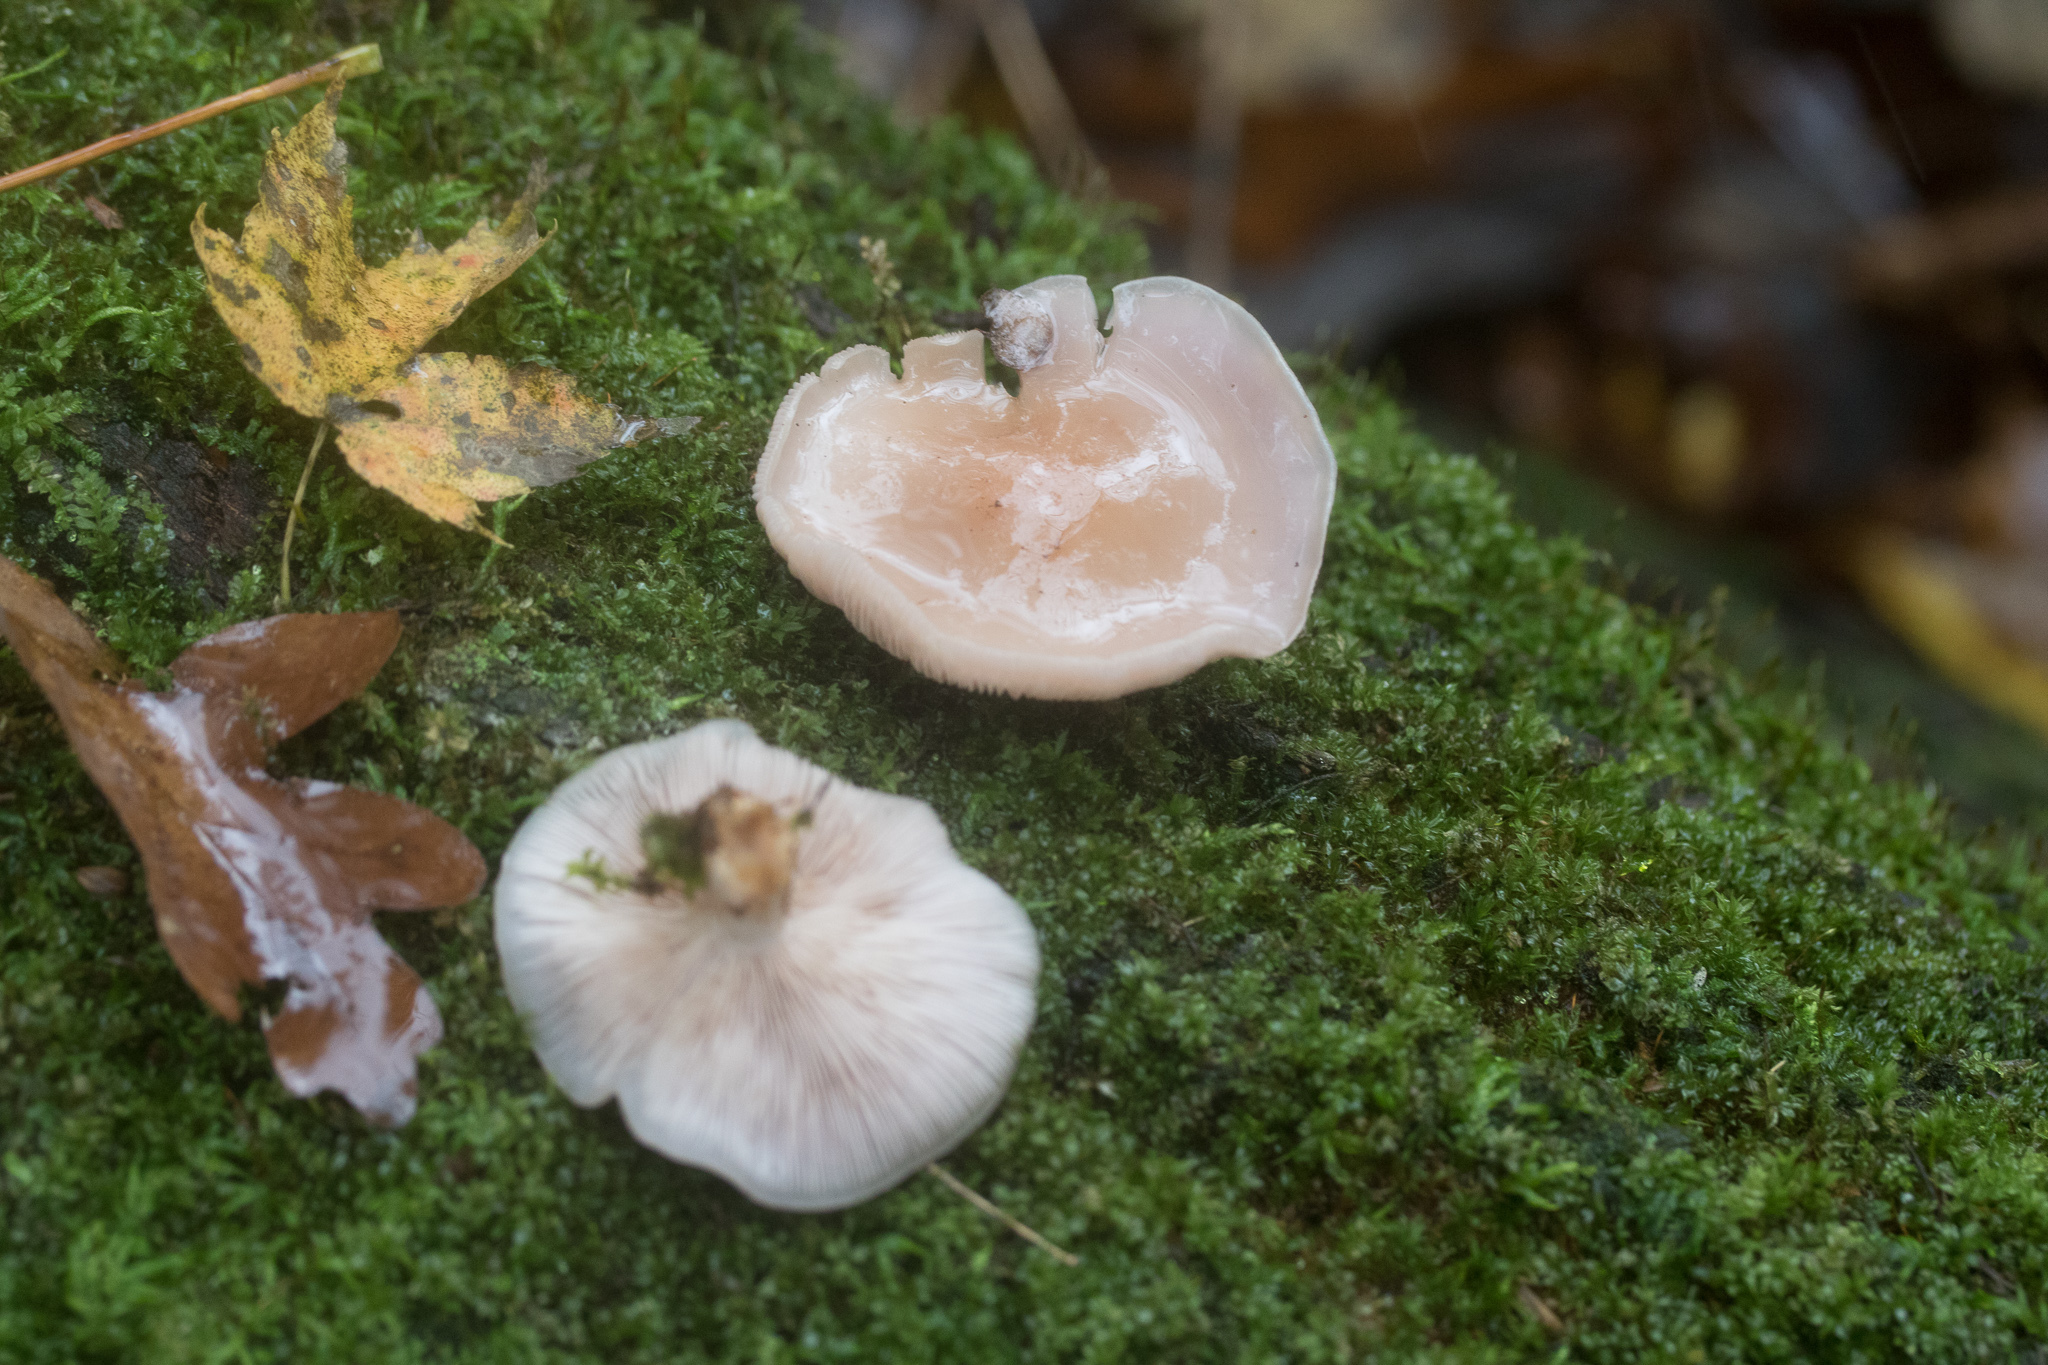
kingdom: Fungi
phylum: Basidiomycota
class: Agaricomycetes
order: Agaricales
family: Tricholomataceae
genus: Collybia
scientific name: Collybia
